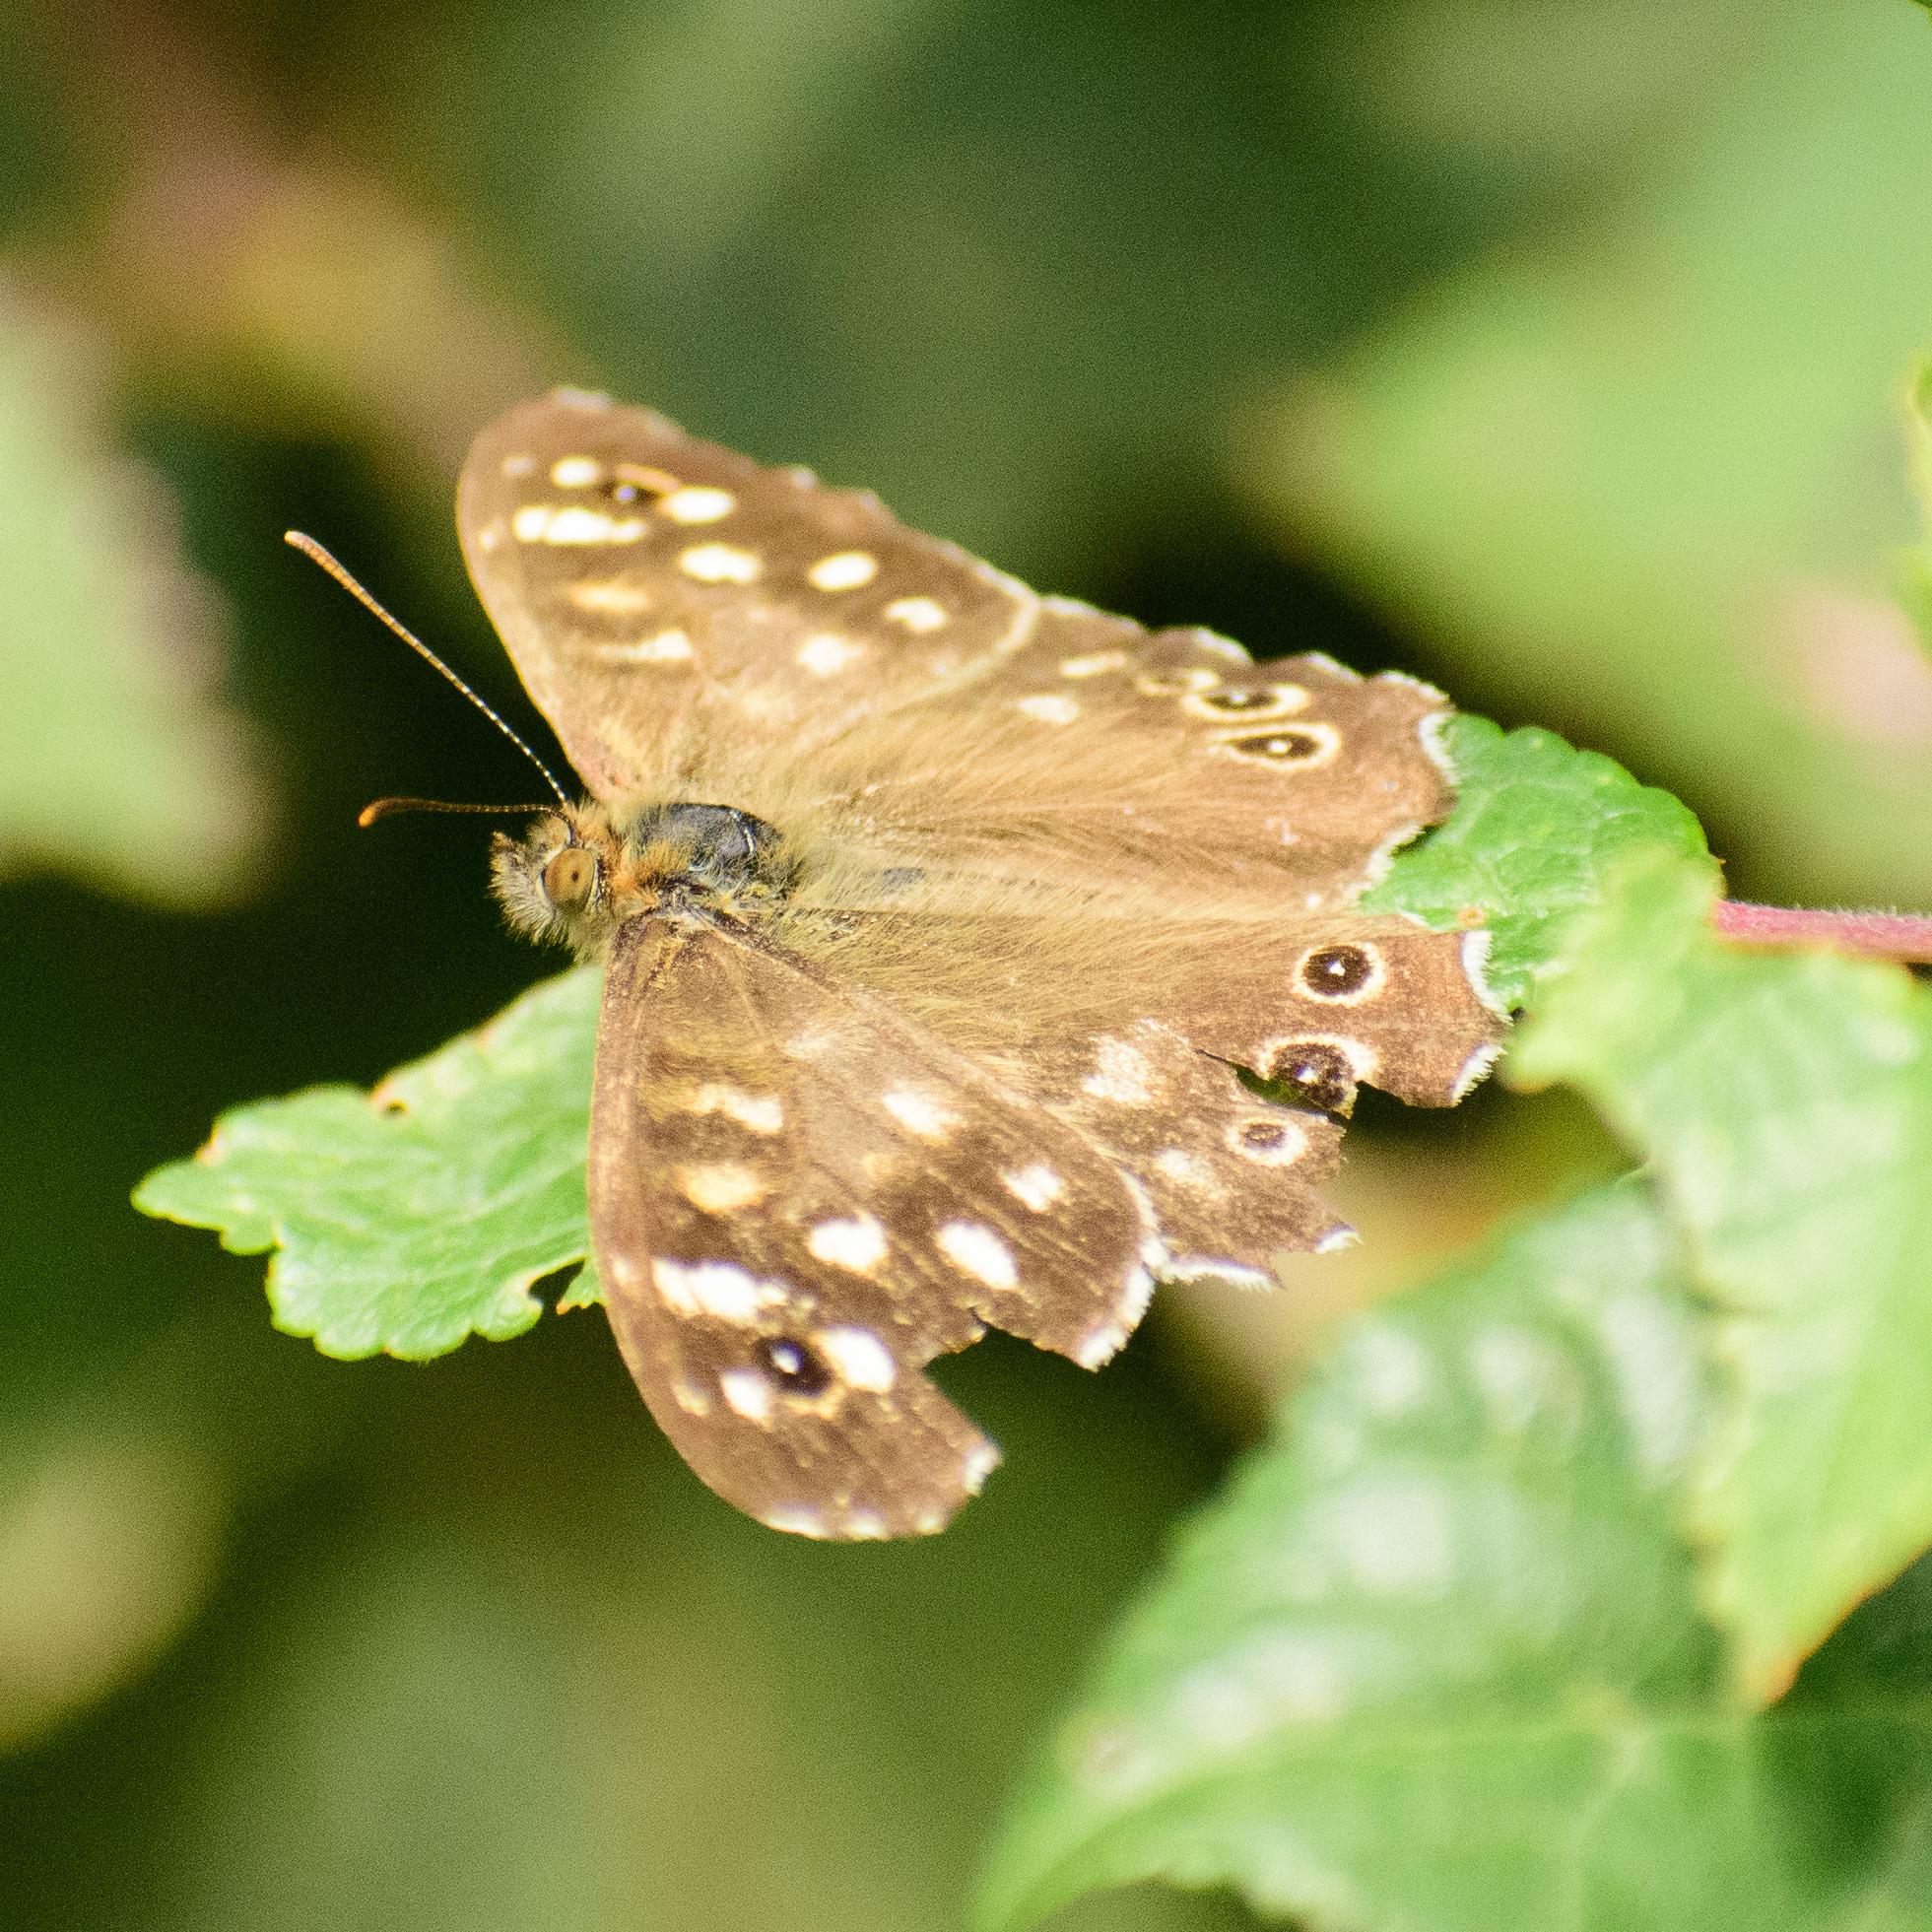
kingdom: Animalia
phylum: Arthropoda
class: Insecta
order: Lepidoptera
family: Nymphalidae
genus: Pararge
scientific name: Pararge aegeria
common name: Speckled wood
